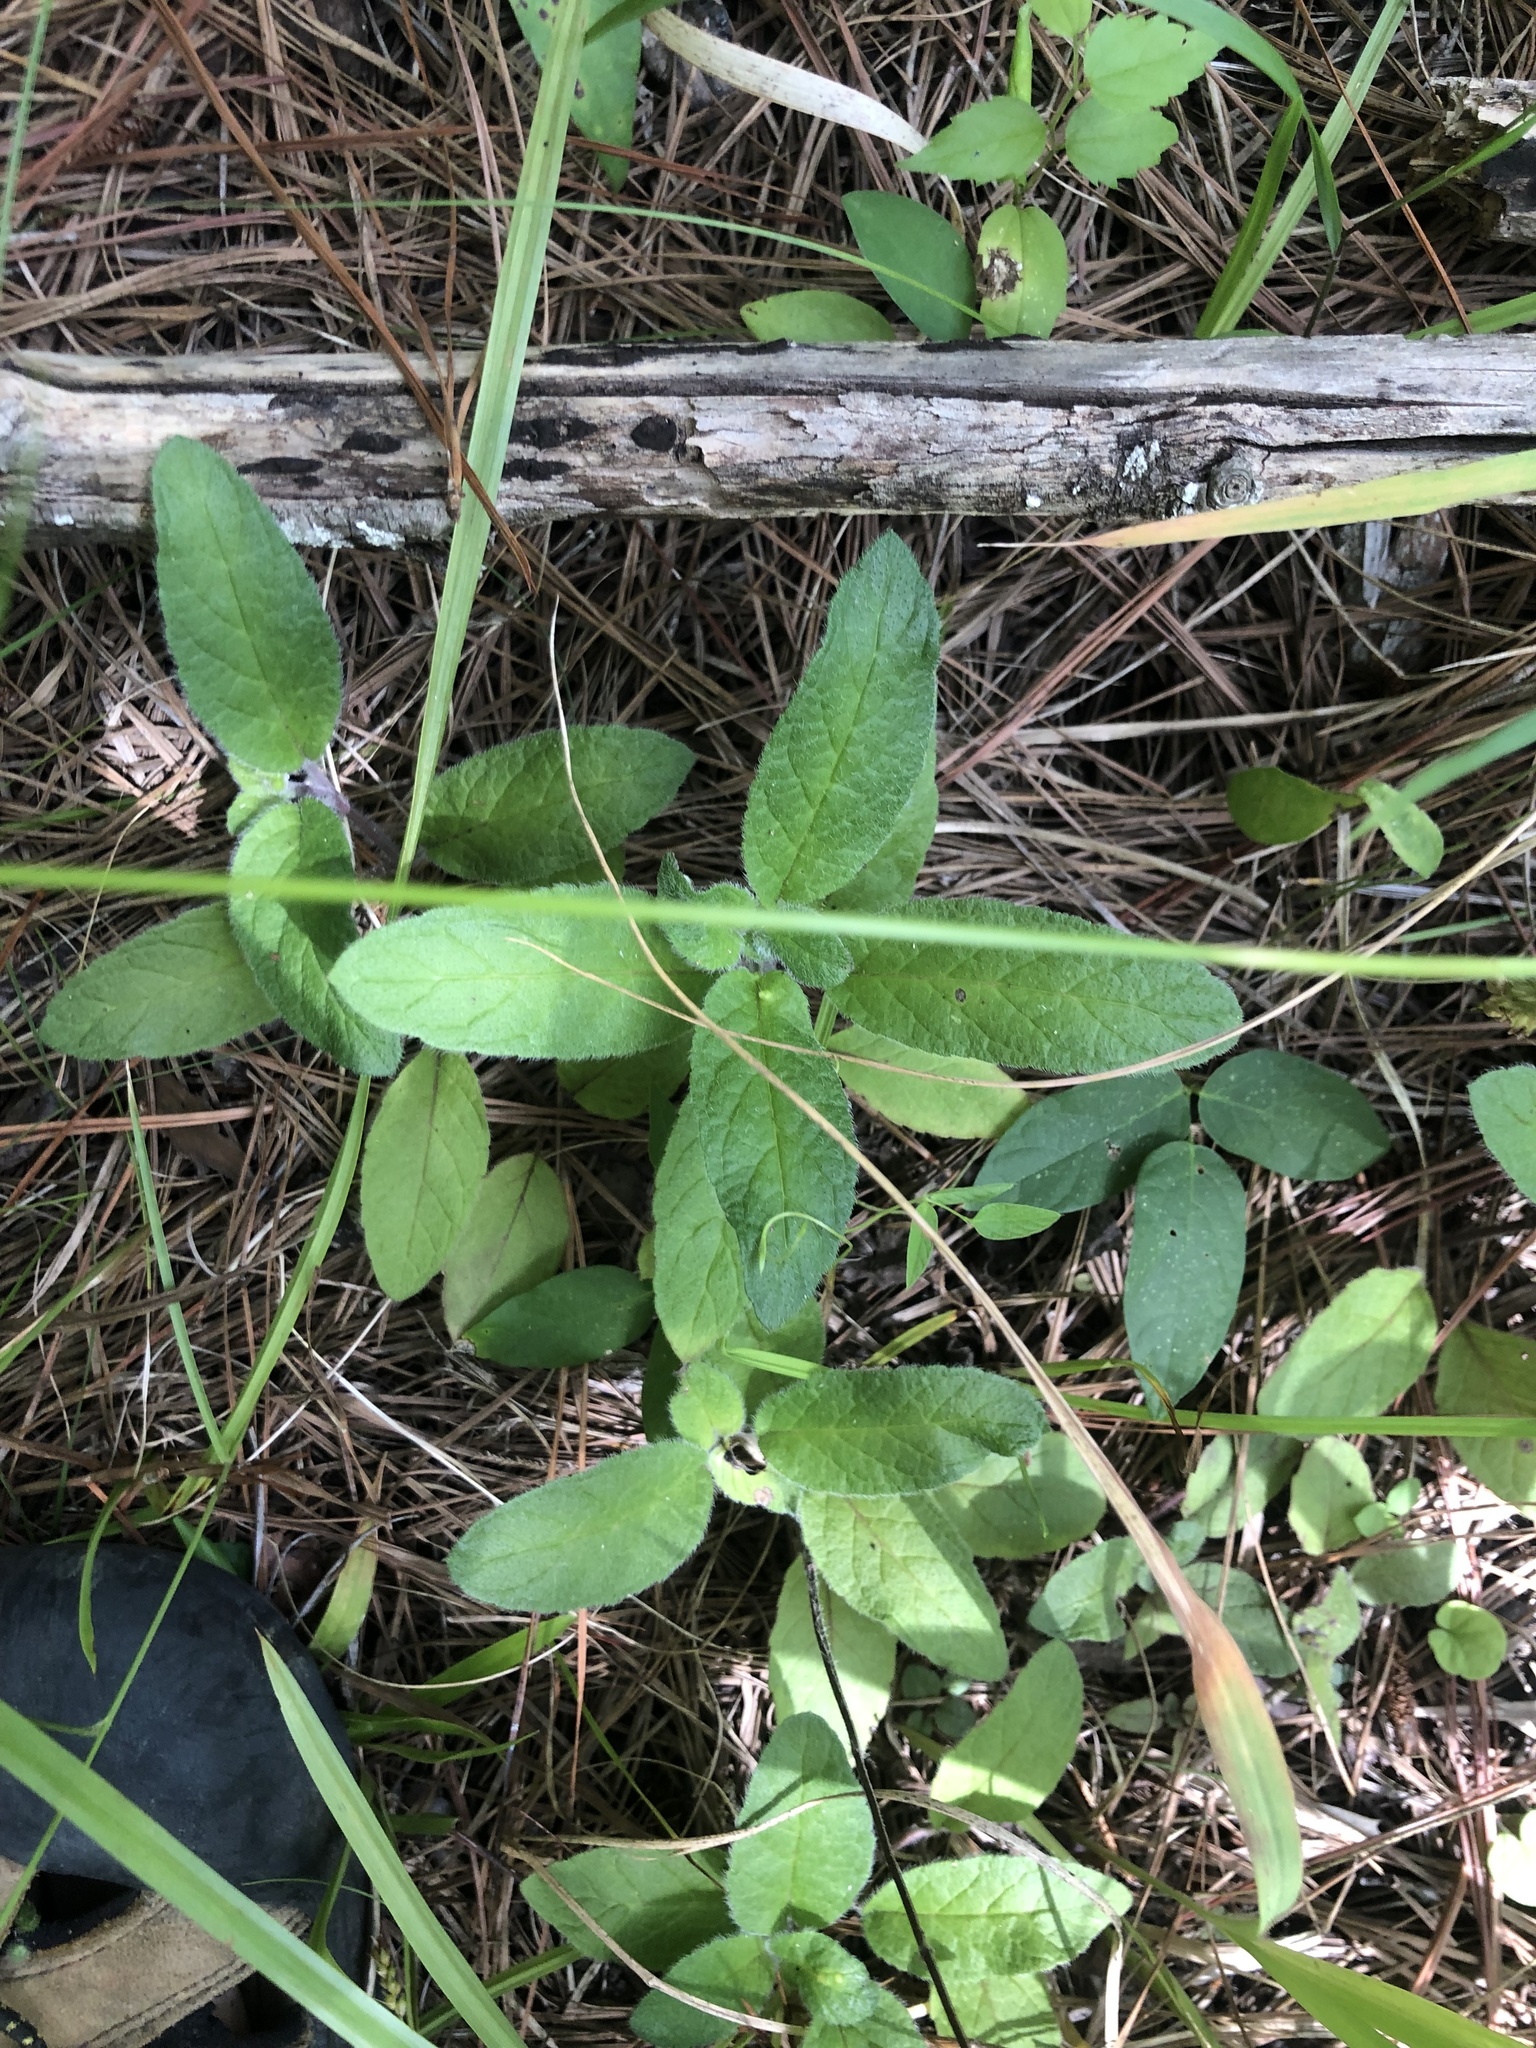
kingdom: Plantae
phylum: Tracheophyta
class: Magnoliopsida
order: Lamiales
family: Lamiaceae
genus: Blephilia
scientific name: Blephilia ciliata
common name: Downy blephilia
